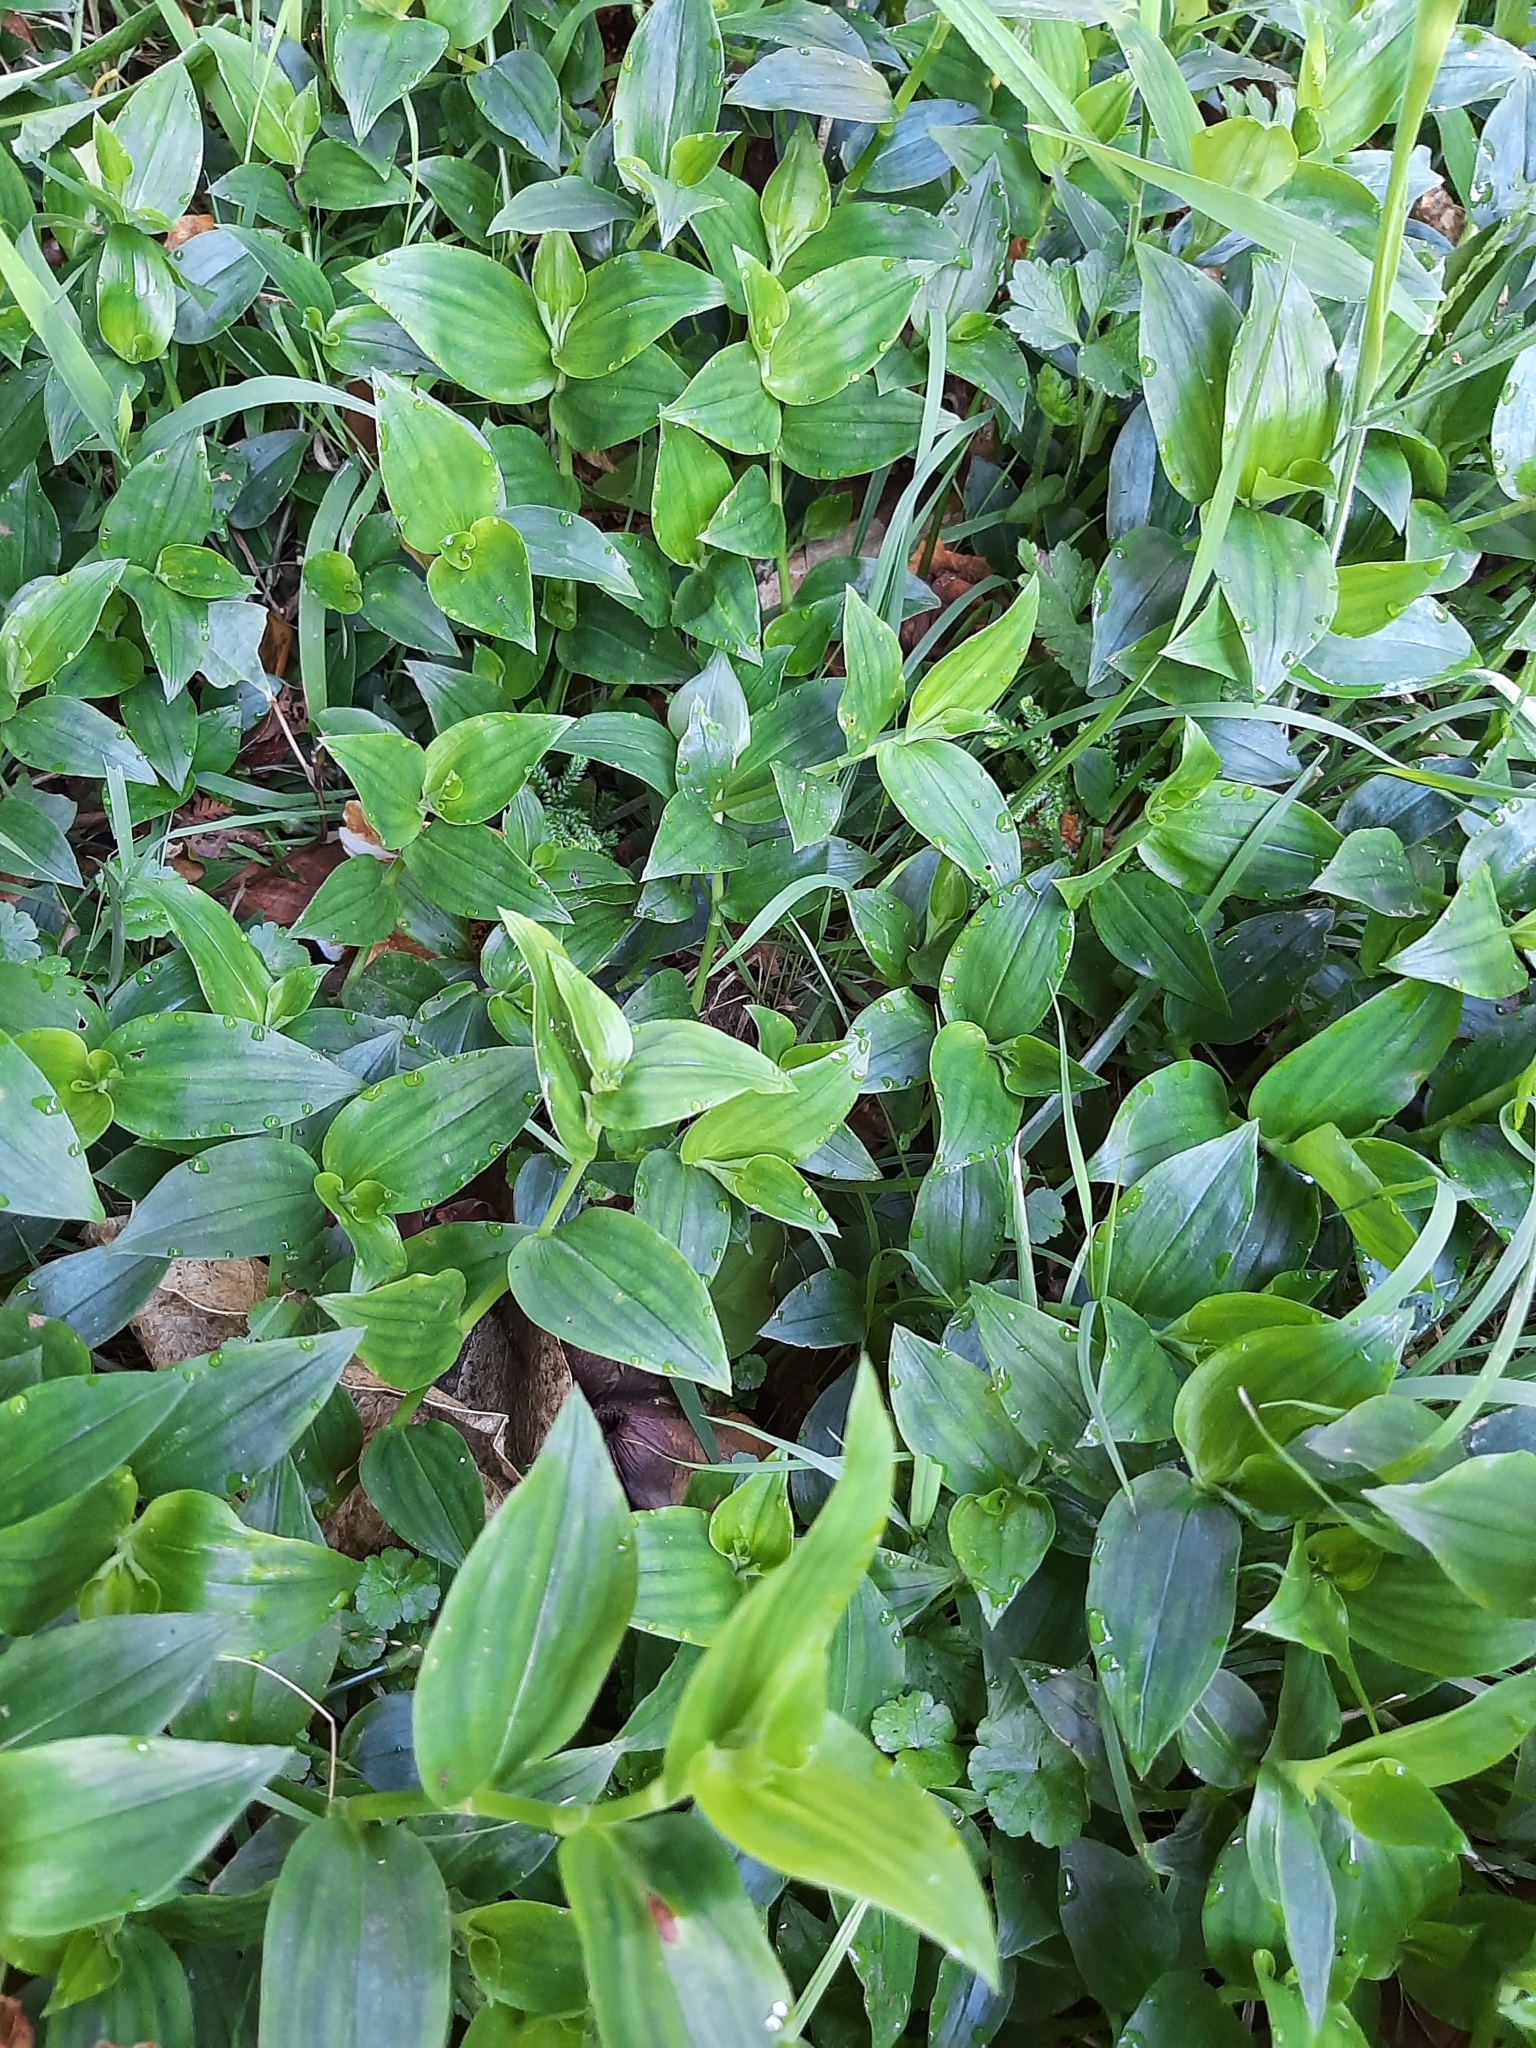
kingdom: Plantae
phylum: Tracheophyta
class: Liliopsida
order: Commelinales
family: Commelinaceae
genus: Tradescantia
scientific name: Tradescantia fluminensis
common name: Wandering-jew
